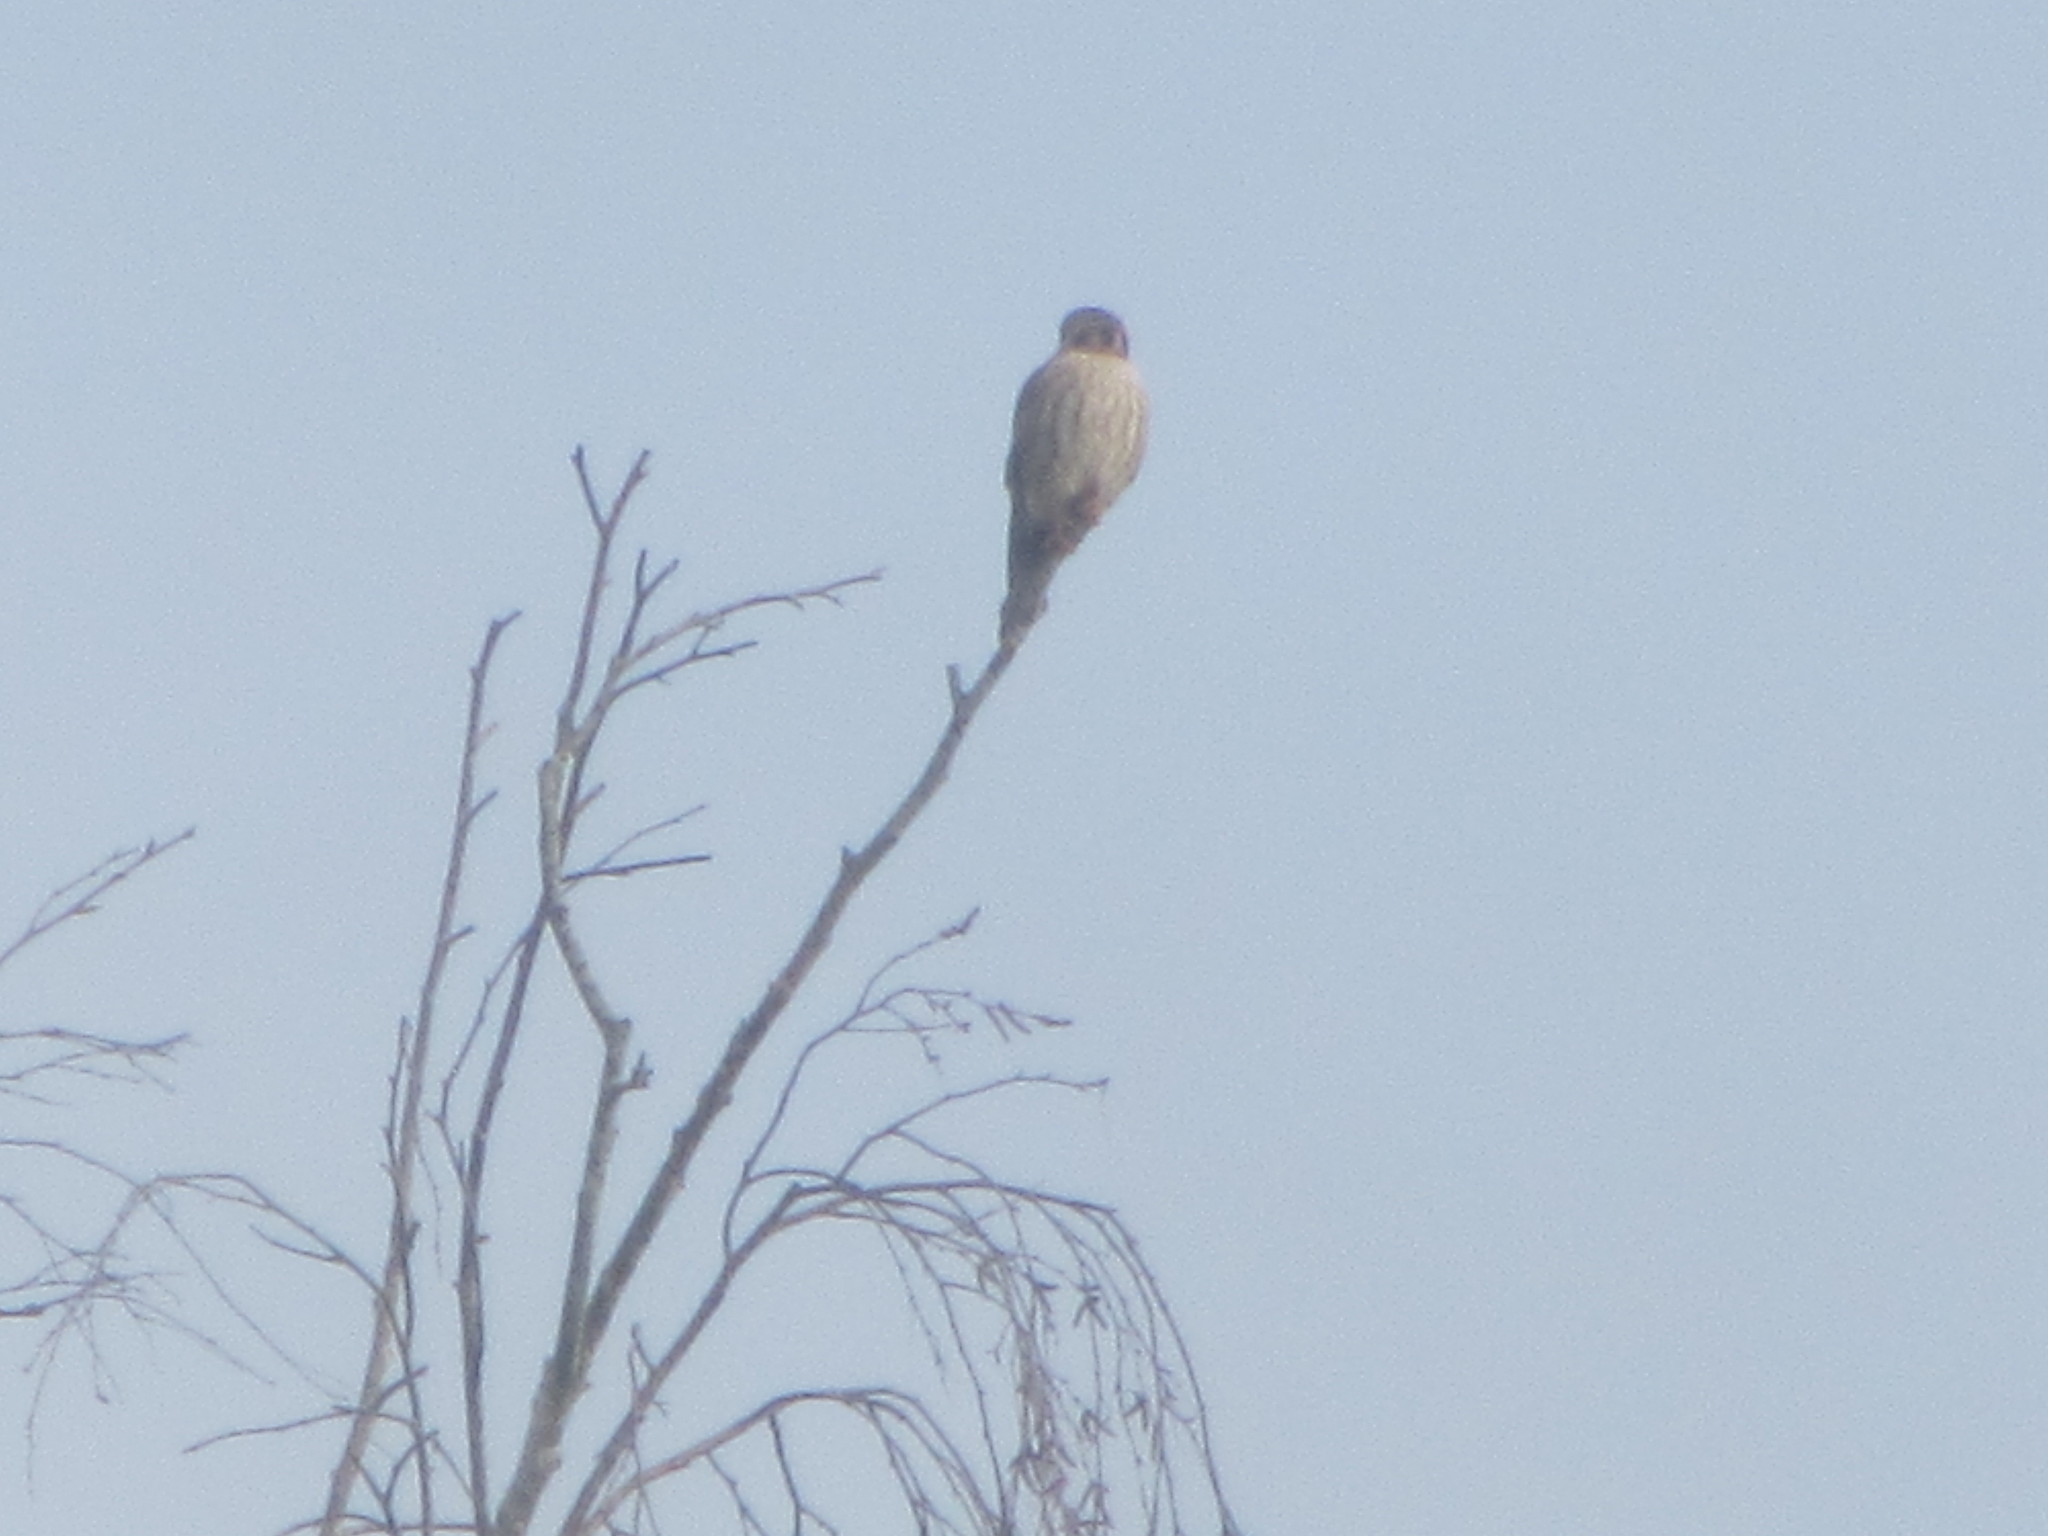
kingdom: Animalia
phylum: Chordata
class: Aves
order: Falconiformes
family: Falconidae
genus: Falco
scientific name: Falco sparverius
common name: American kestrel
